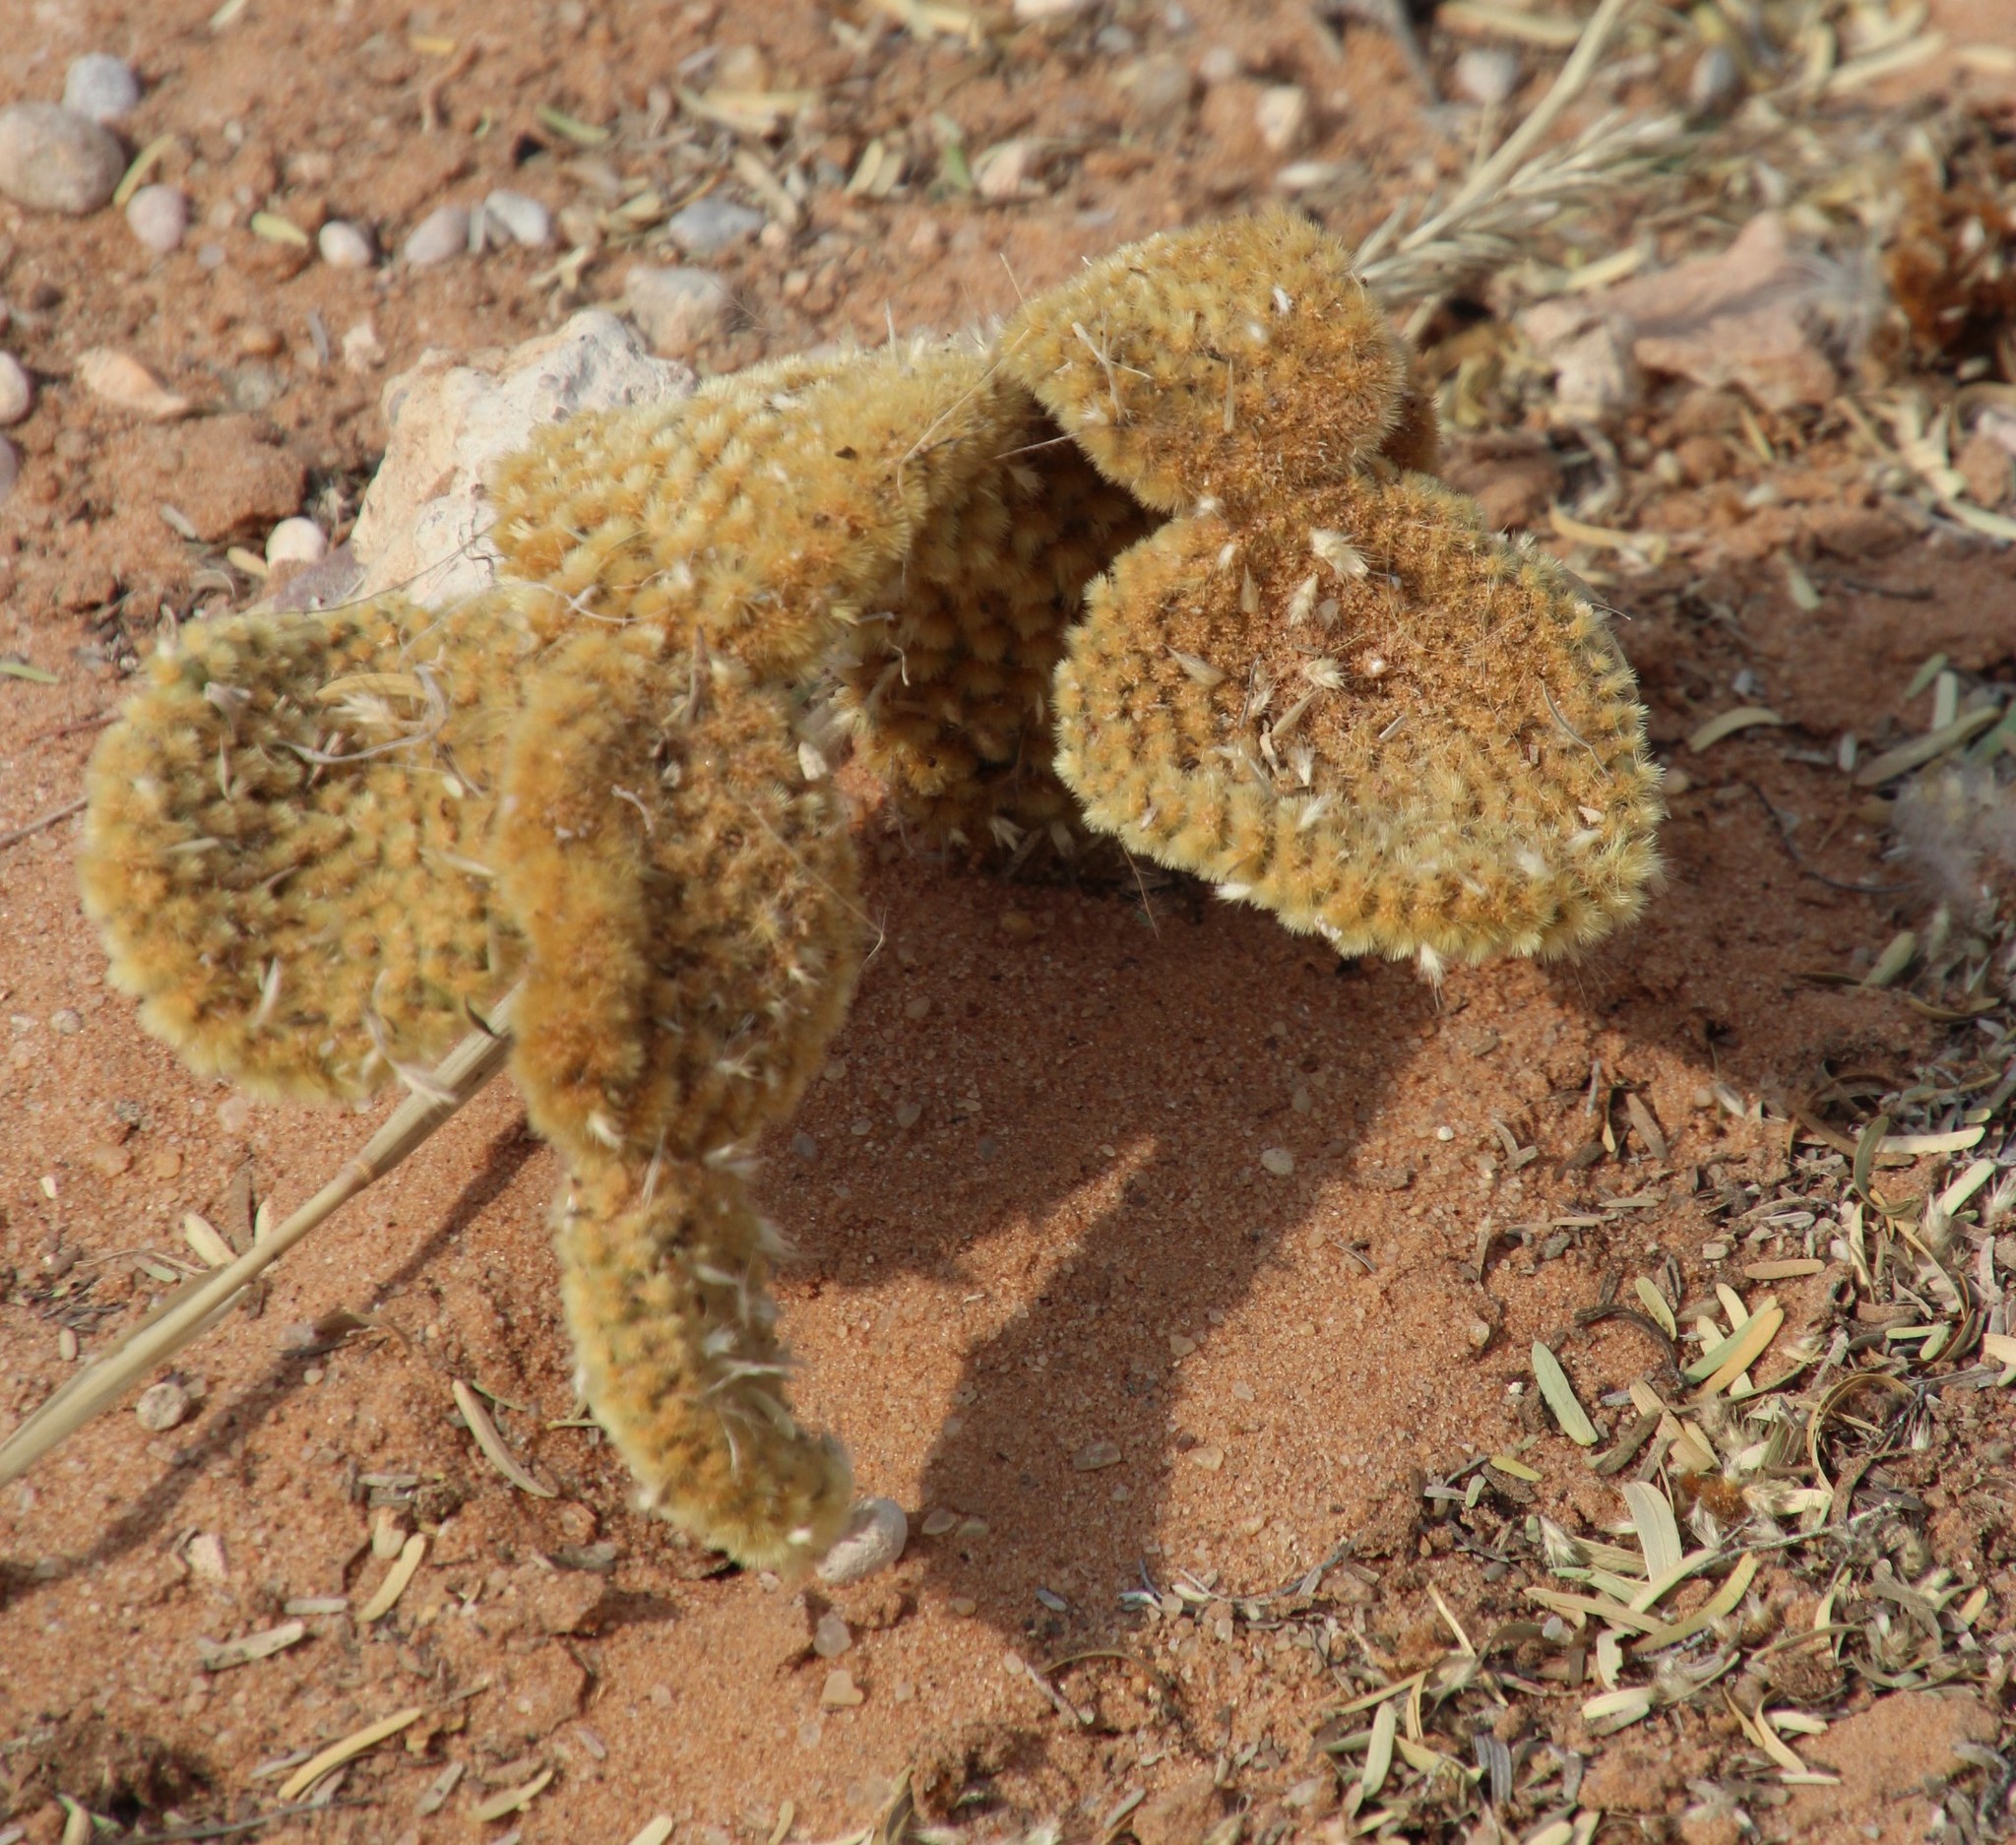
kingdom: Plantae
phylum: Tracheophyta
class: Magnoliopsida
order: Caryophyllales
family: Cactaceae
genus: Opuntia
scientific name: Opuntia microdasys
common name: Angel's-wings
